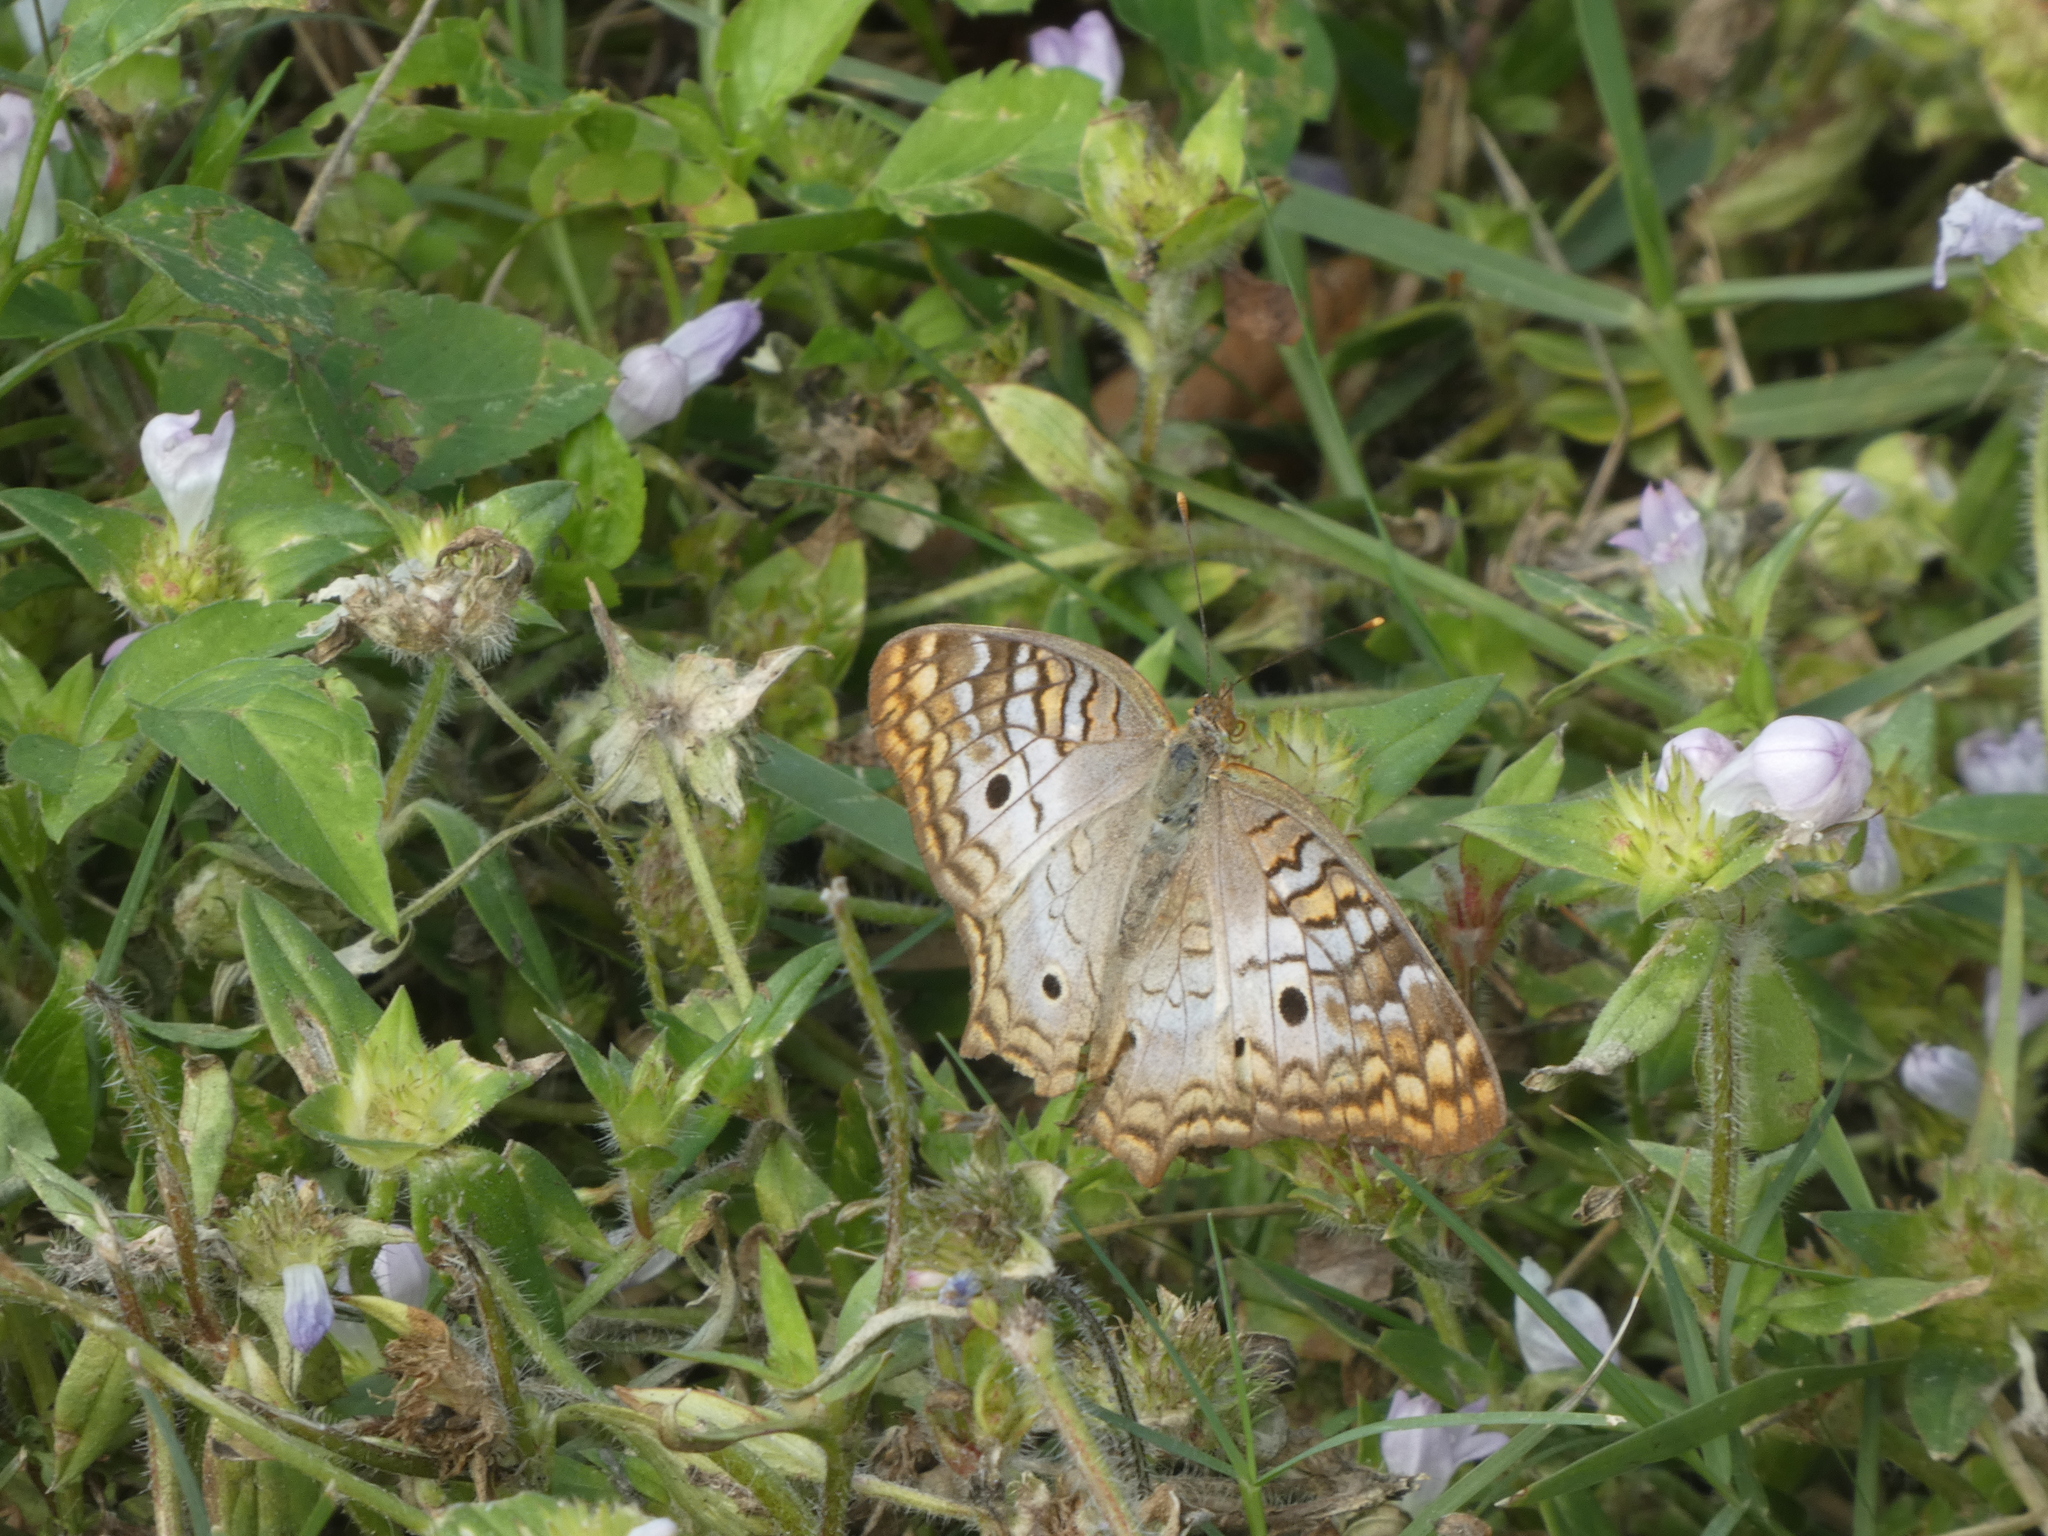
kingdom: Animalia
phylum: Arthropoda
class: Insecta
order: Lepidoptera
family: Nymphalidae
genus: Anartia
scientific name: Anartia jatrophae
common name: White peacock
